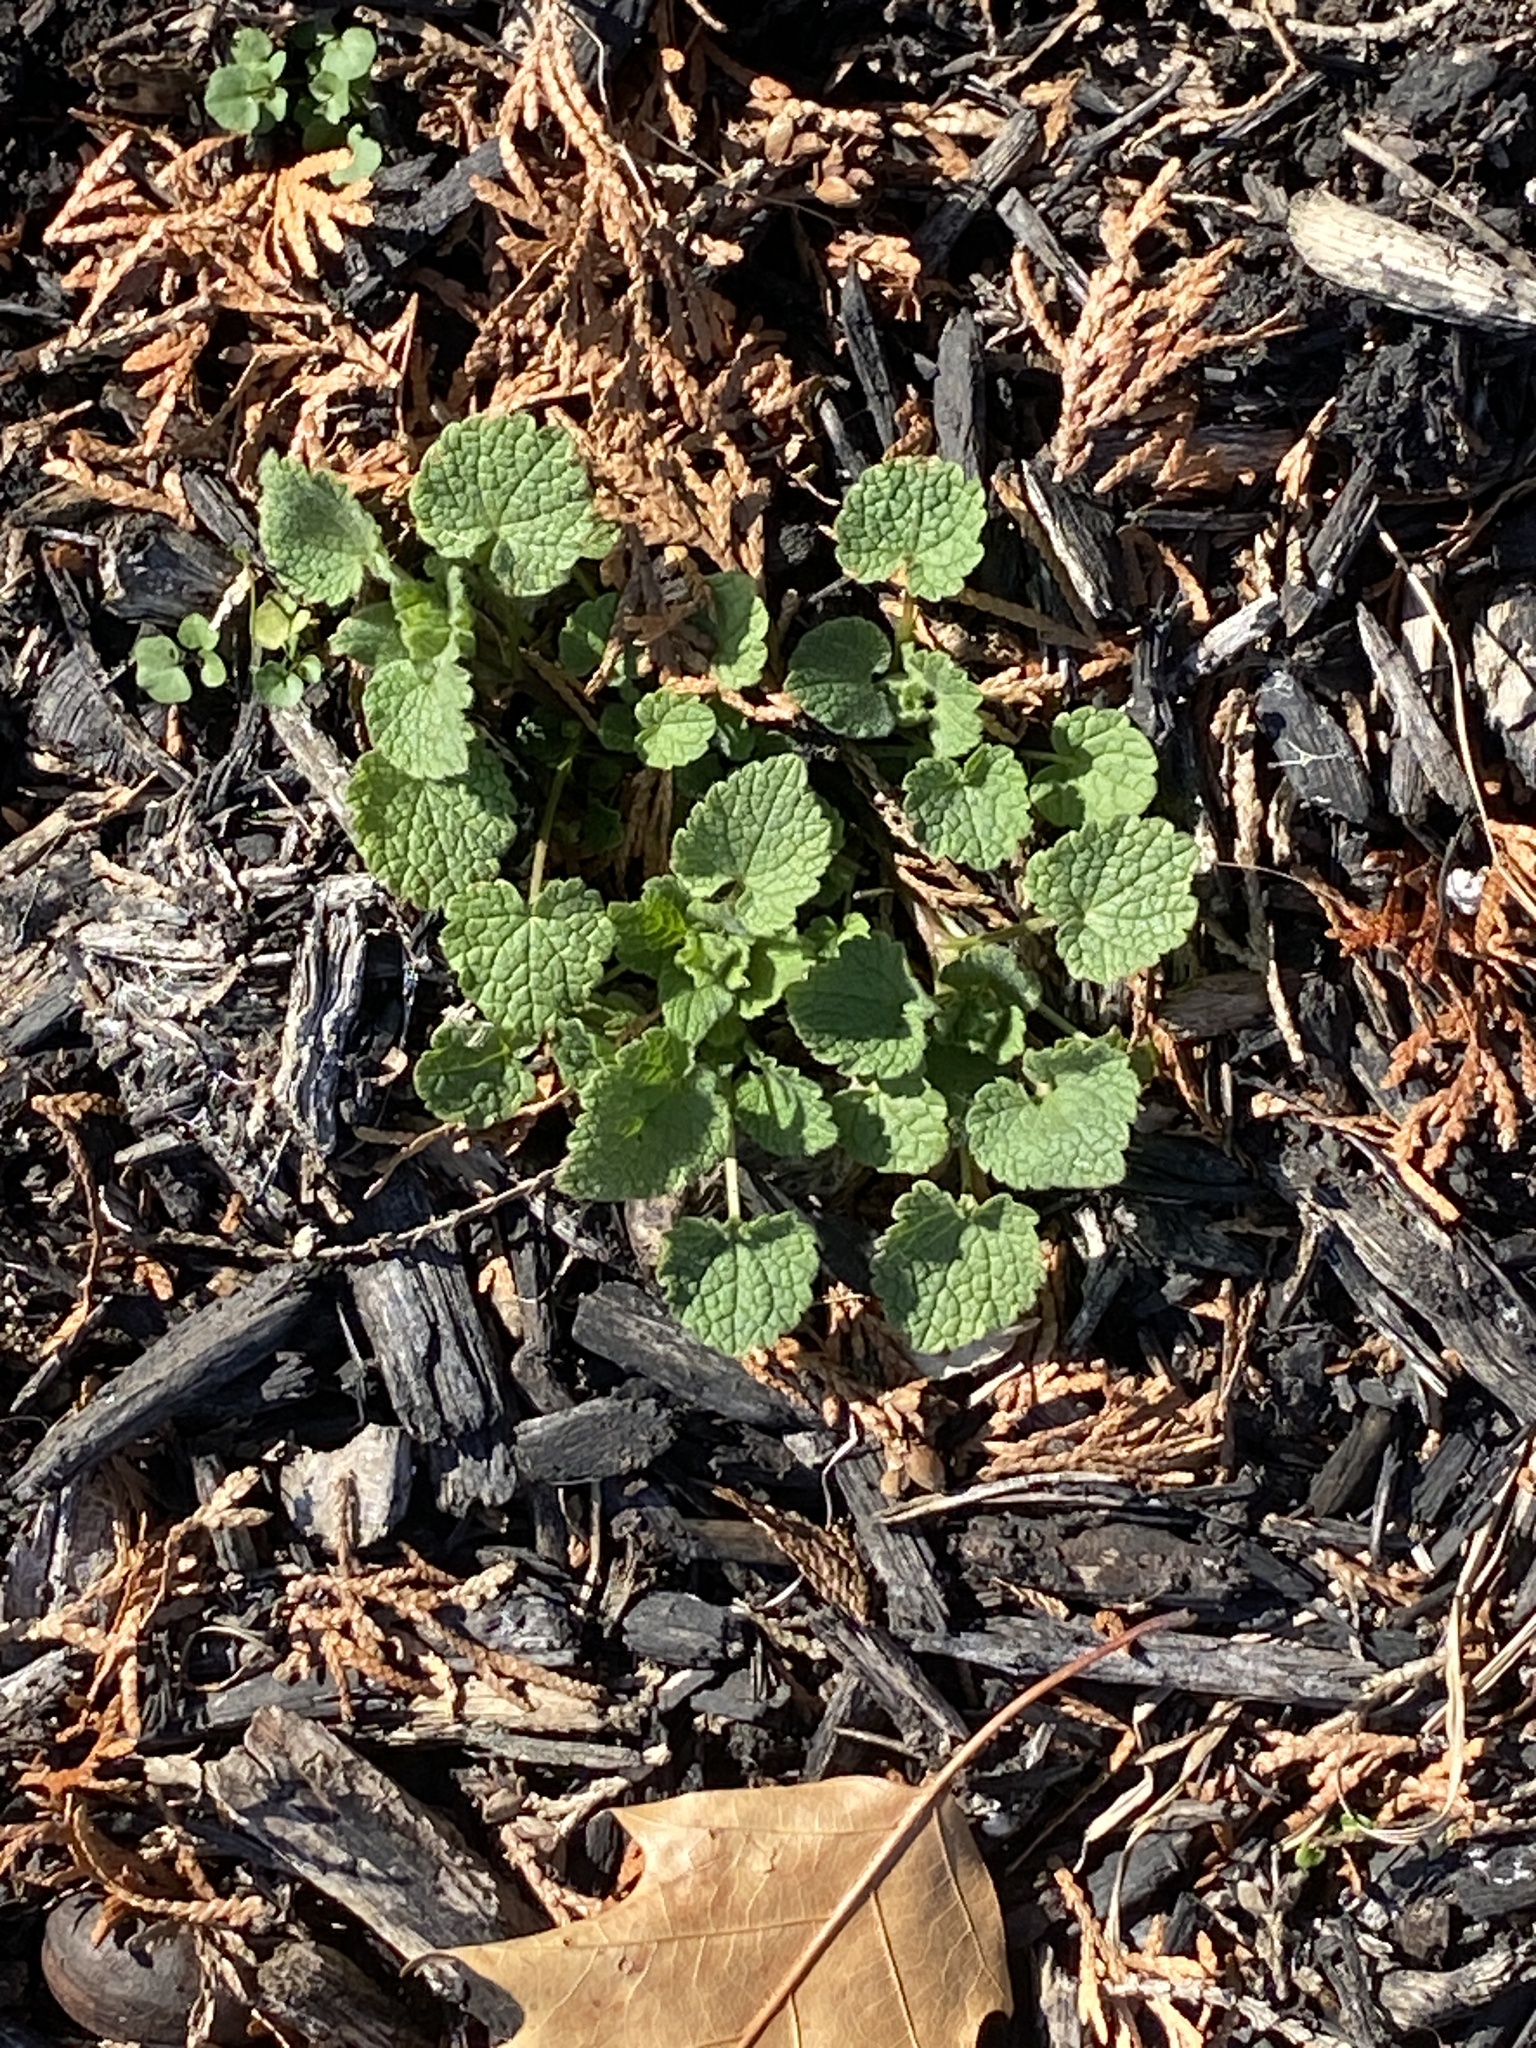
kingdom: Plantae
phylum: Tracheophyta
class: Magnoliopsida
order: Lamiales
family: Lamiaceae
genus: Lamium
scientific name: Lamium purpureum
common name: Red dead-nettle
